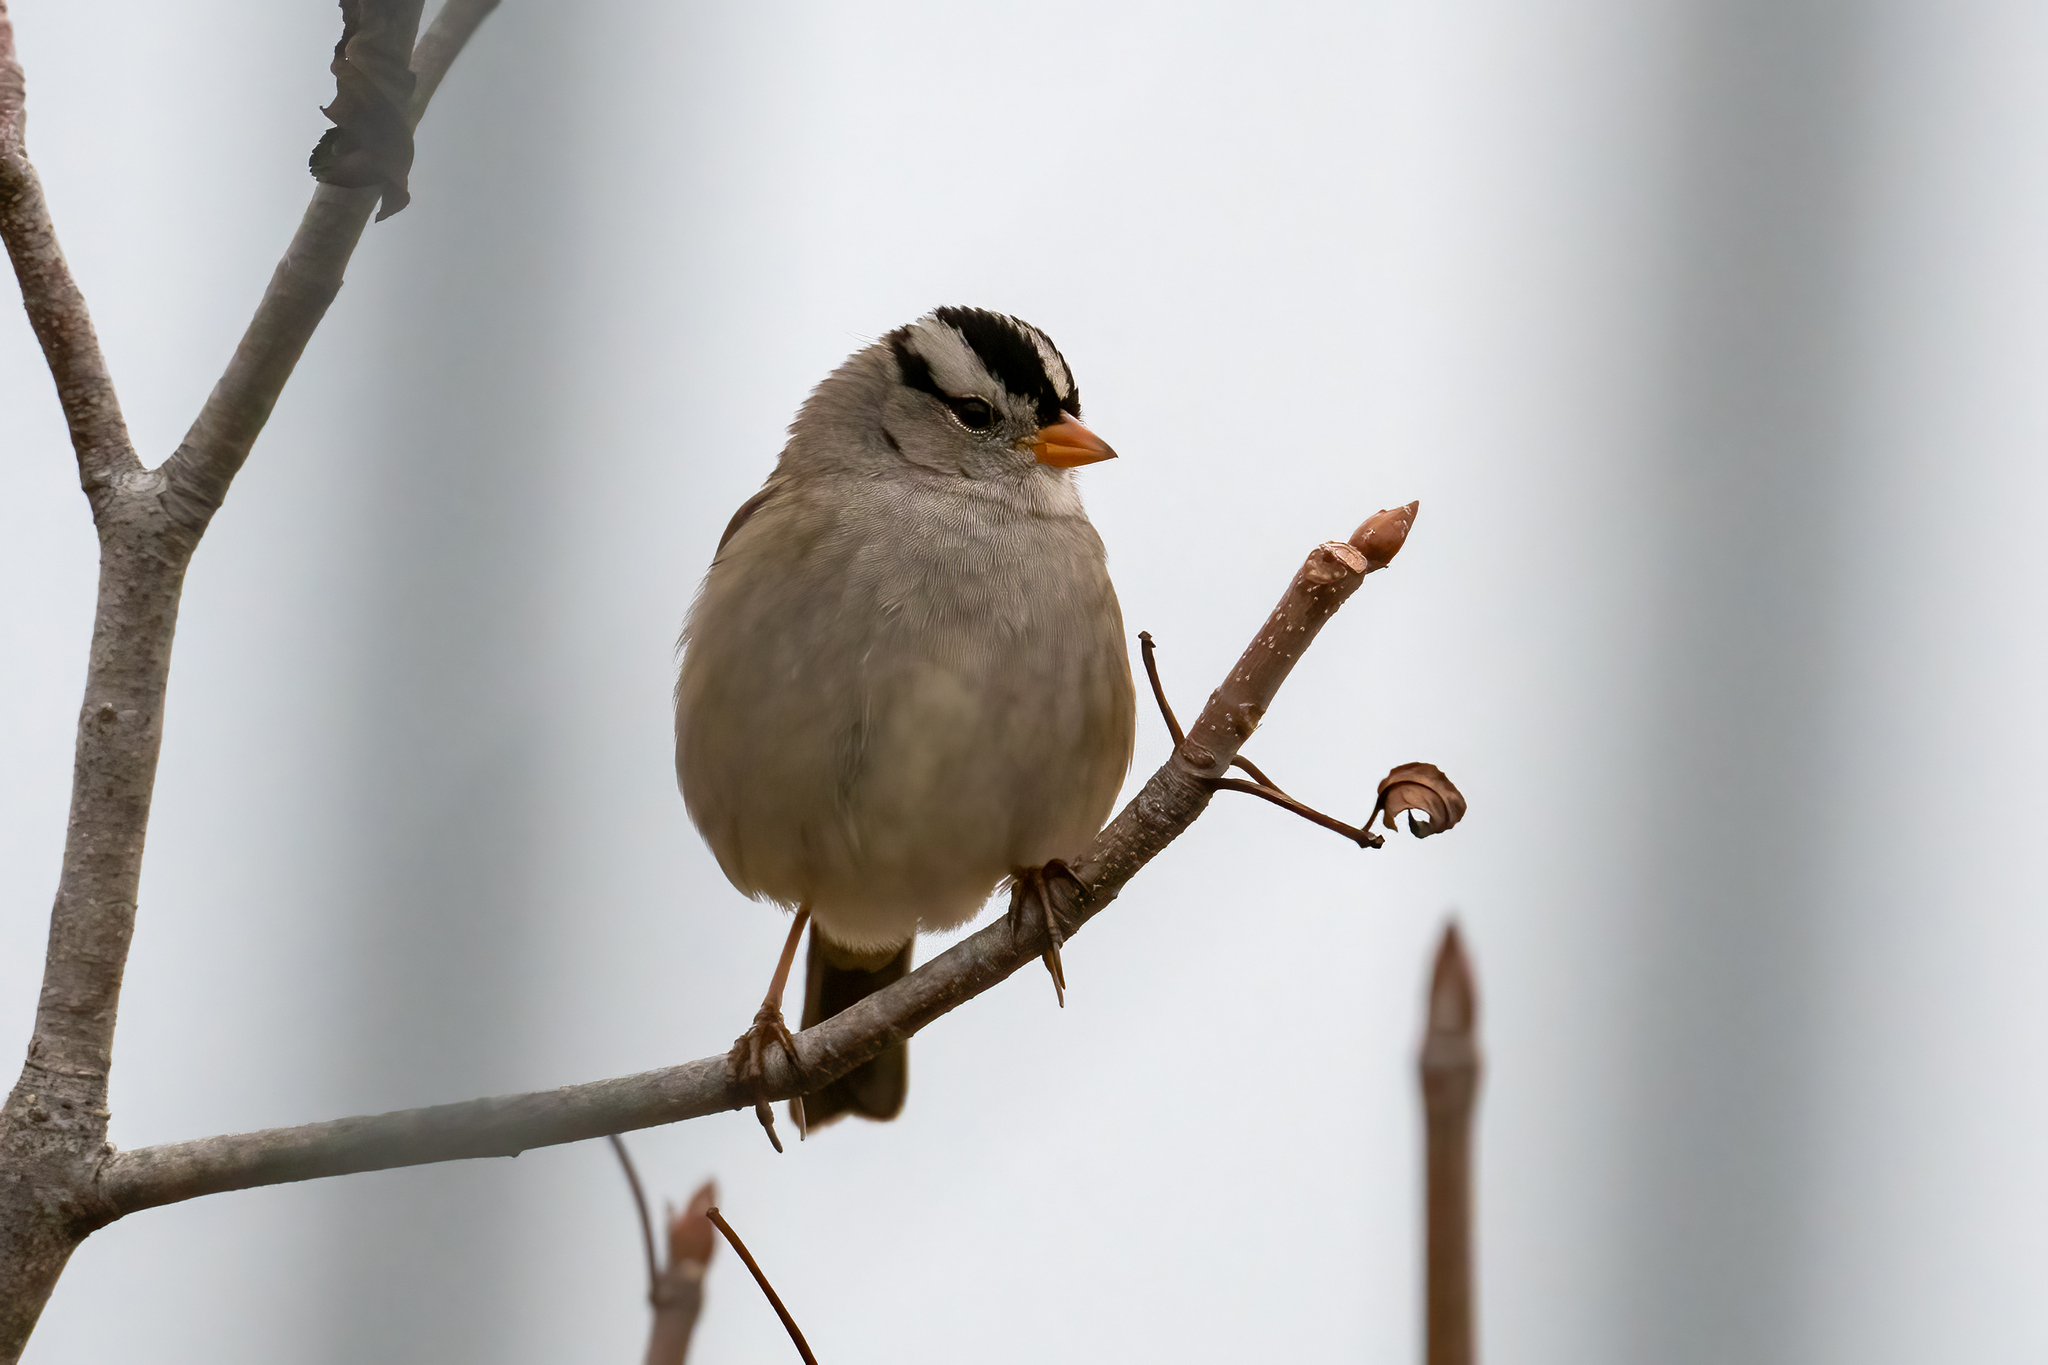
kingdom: Animalia
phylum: Chordata
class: Aves
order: Passeriformes
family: Passerellidae
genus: Zonotrichia
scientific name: Zonotrichia leucophrys
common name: White-crowned sparrow
